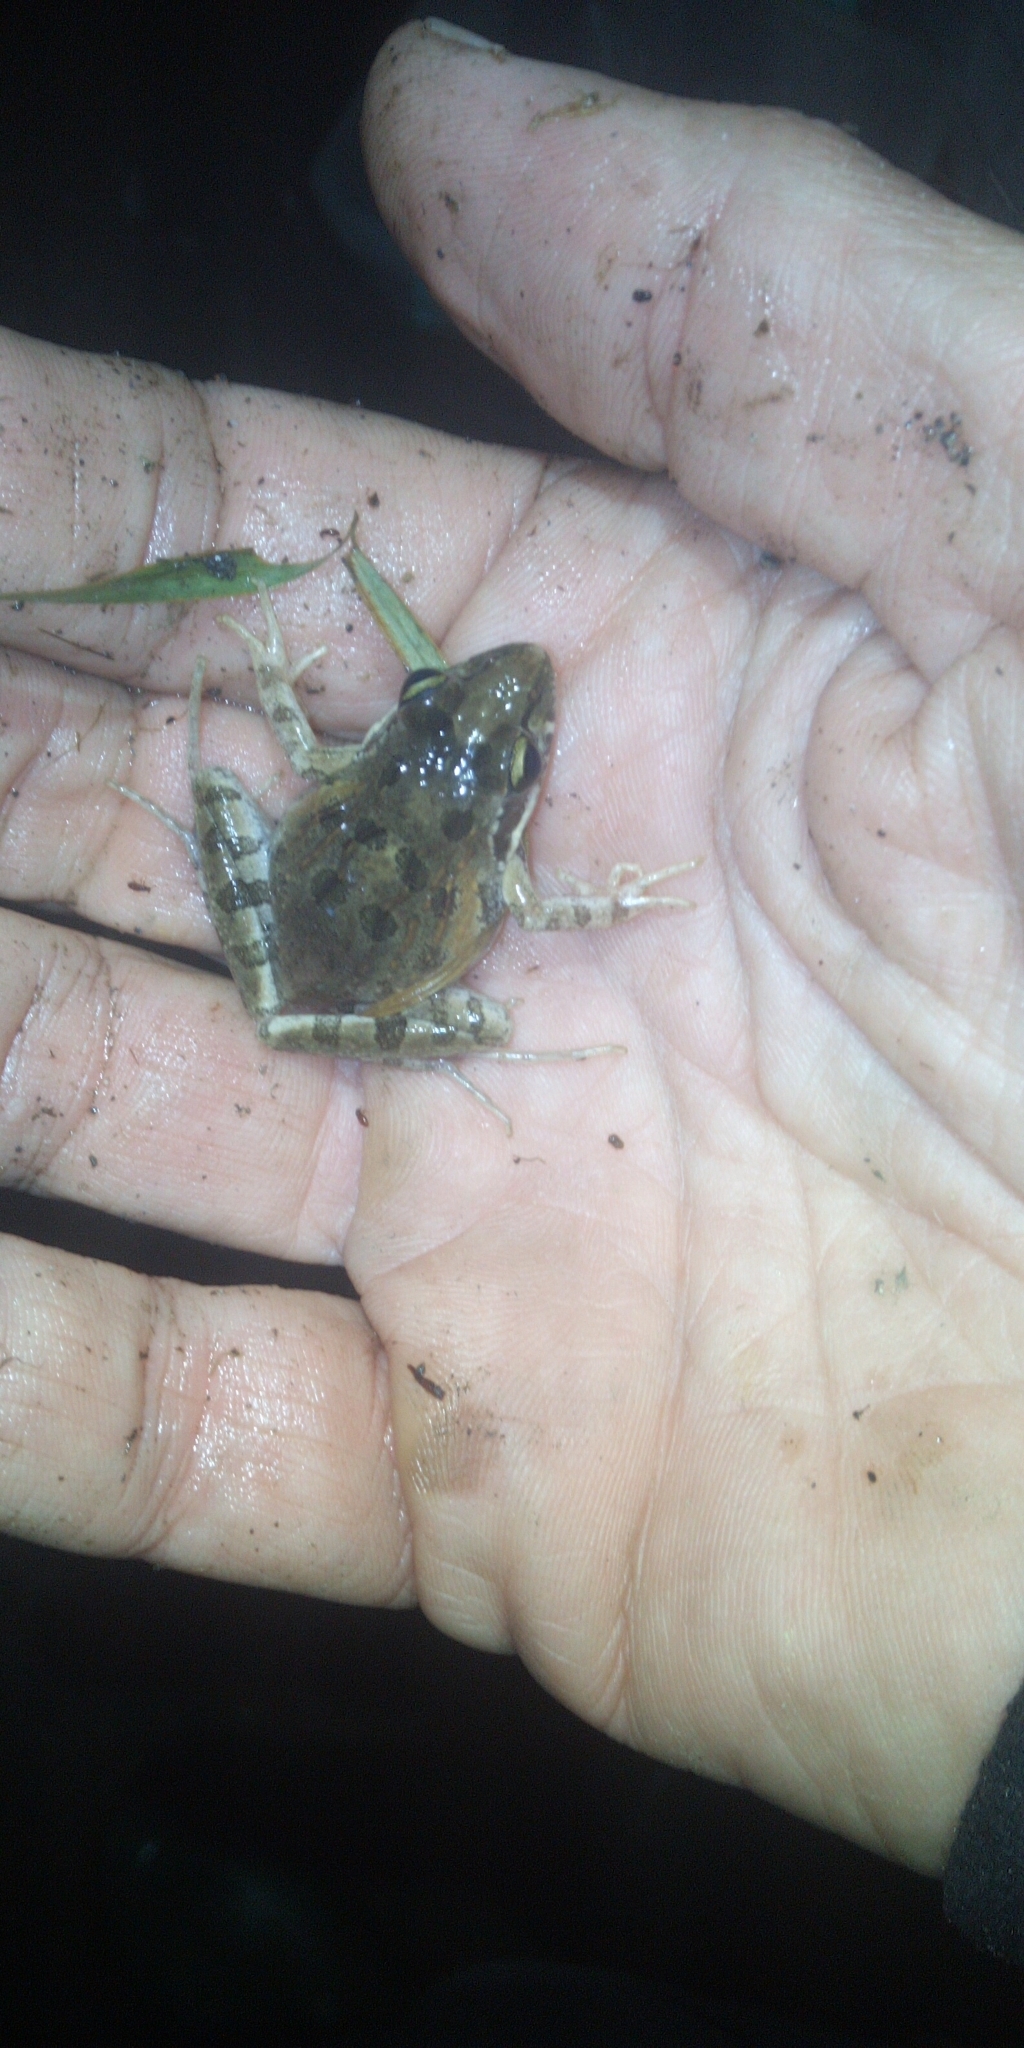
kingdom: Animalia
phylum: Chordata
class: Amphibia
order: Anura
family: Pyxicephalidae
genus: Strongylopus
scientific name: Strongylopus grayii
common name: Gray's stream frog
